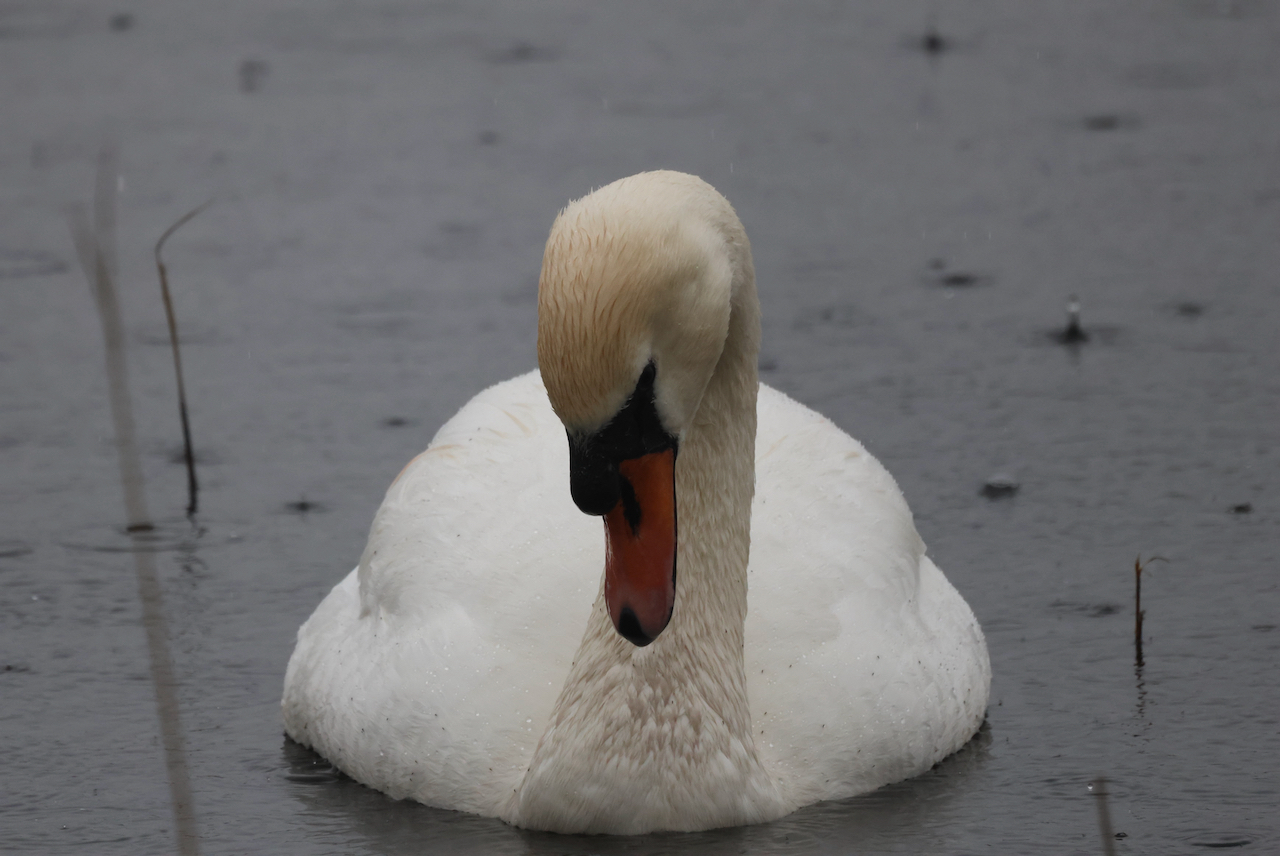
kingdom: Animalia
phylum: Chordata
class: Aves
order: Anseriformes
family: Anatidae
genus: Cygnus
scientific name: Cygnus olor
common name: Mute swan
